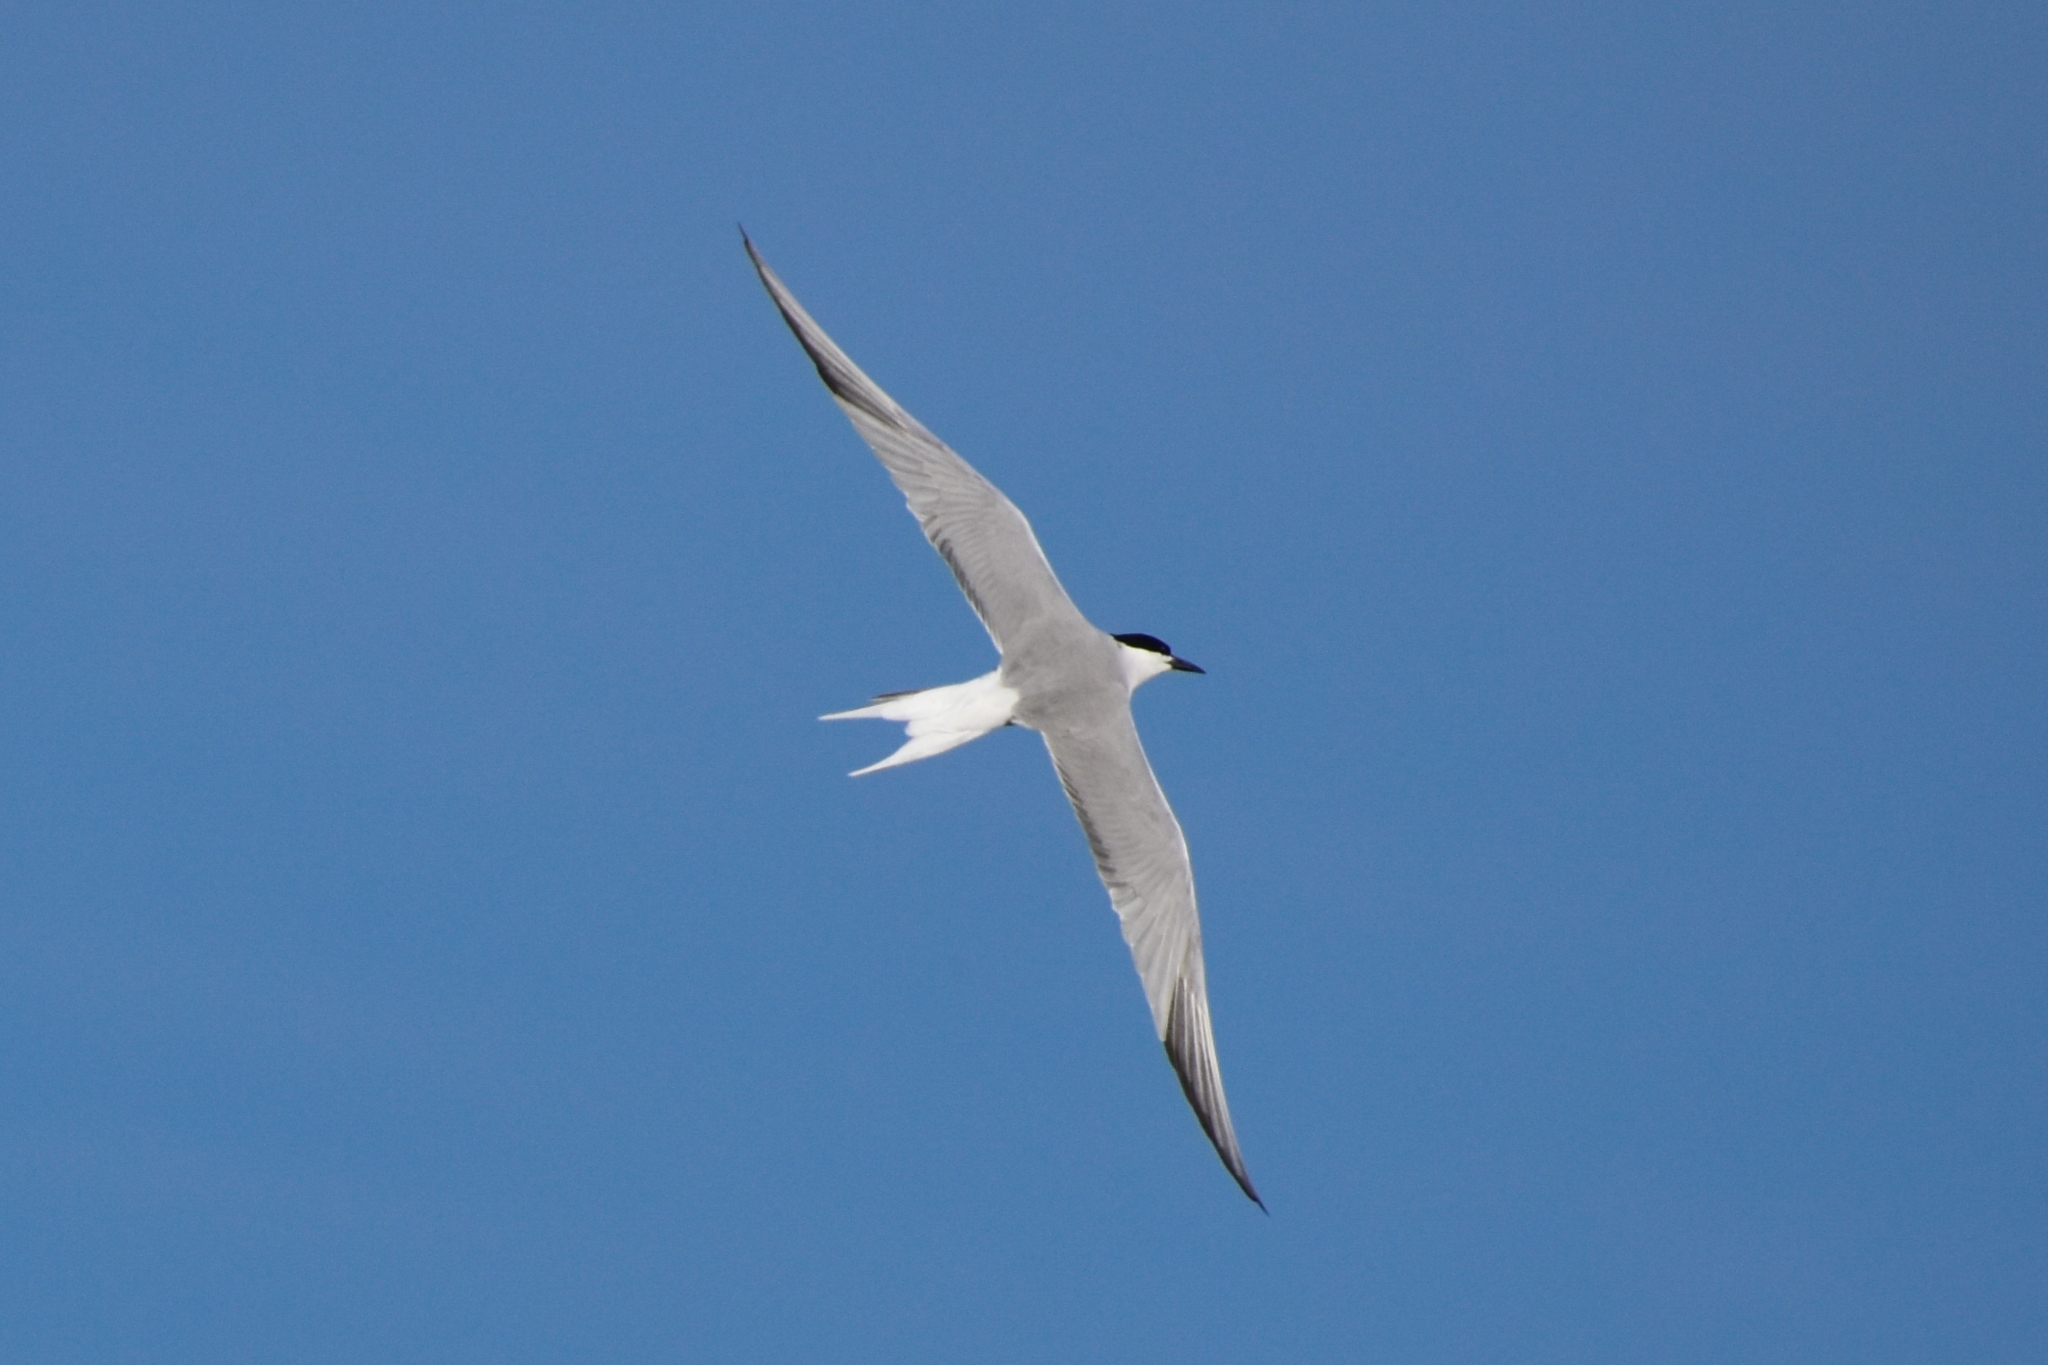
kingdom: Animalia
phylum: Chordata
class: Aves
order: Charadriiformes
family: Laridae
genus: Sterna
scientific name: Sterna hirundo
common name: Common tern
